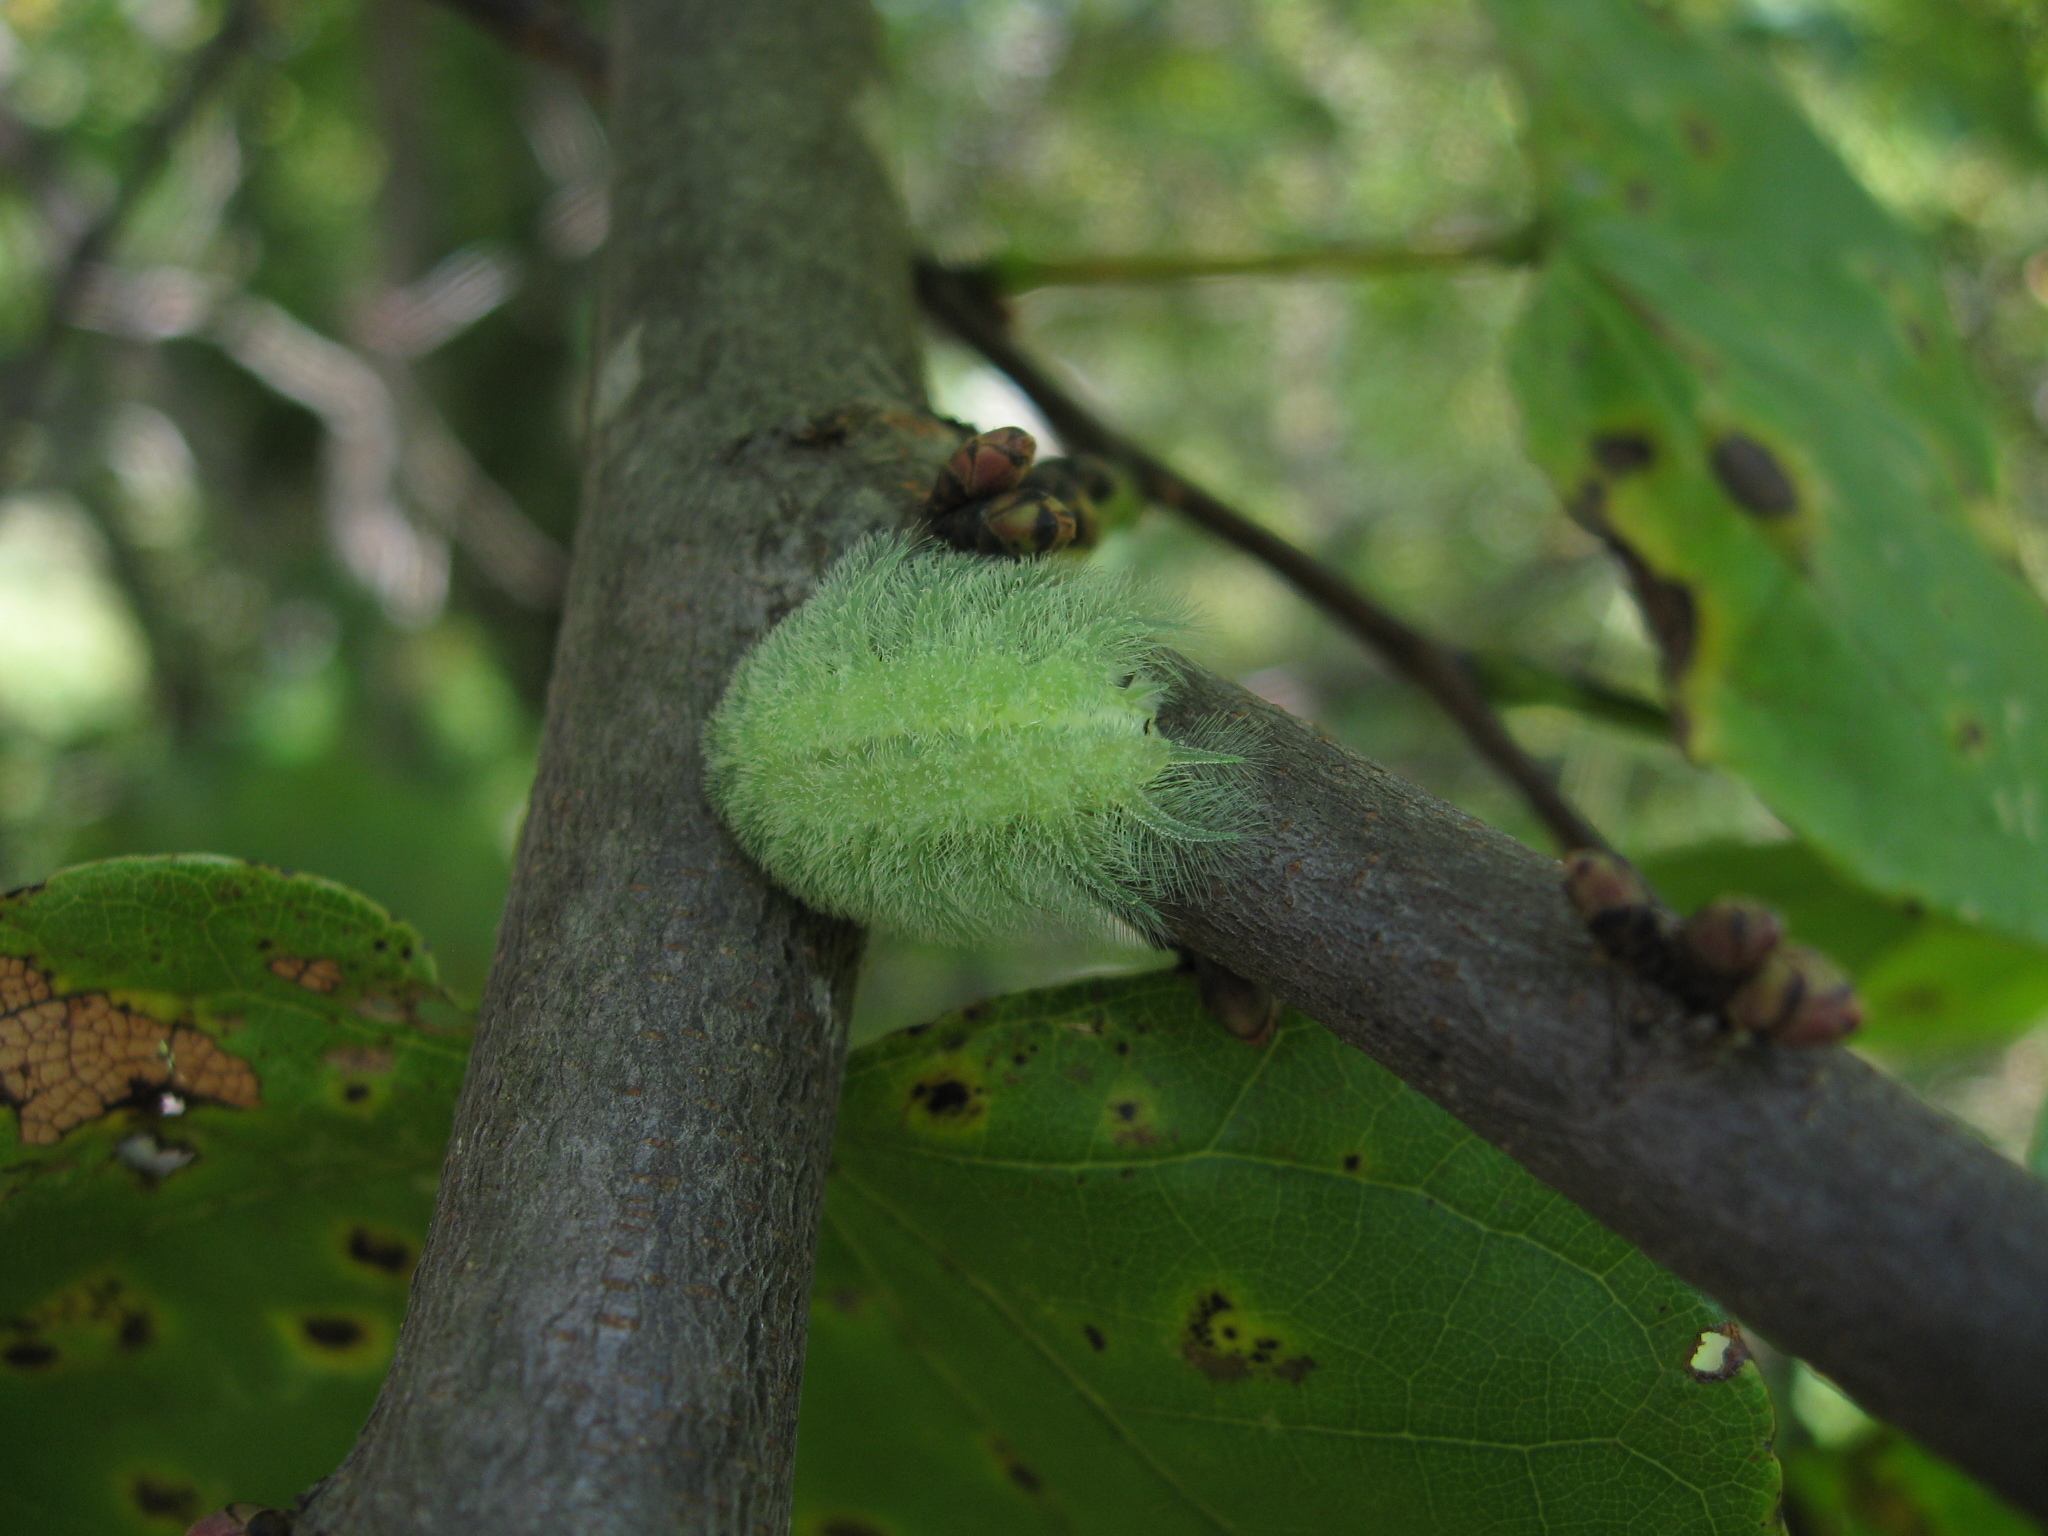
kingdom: Animalia
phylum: Arthropoda
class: Insecta
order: Lepidoptera
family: Limacodidae
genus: Isochaetes
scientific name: Isochaetes beutenmuelleri
